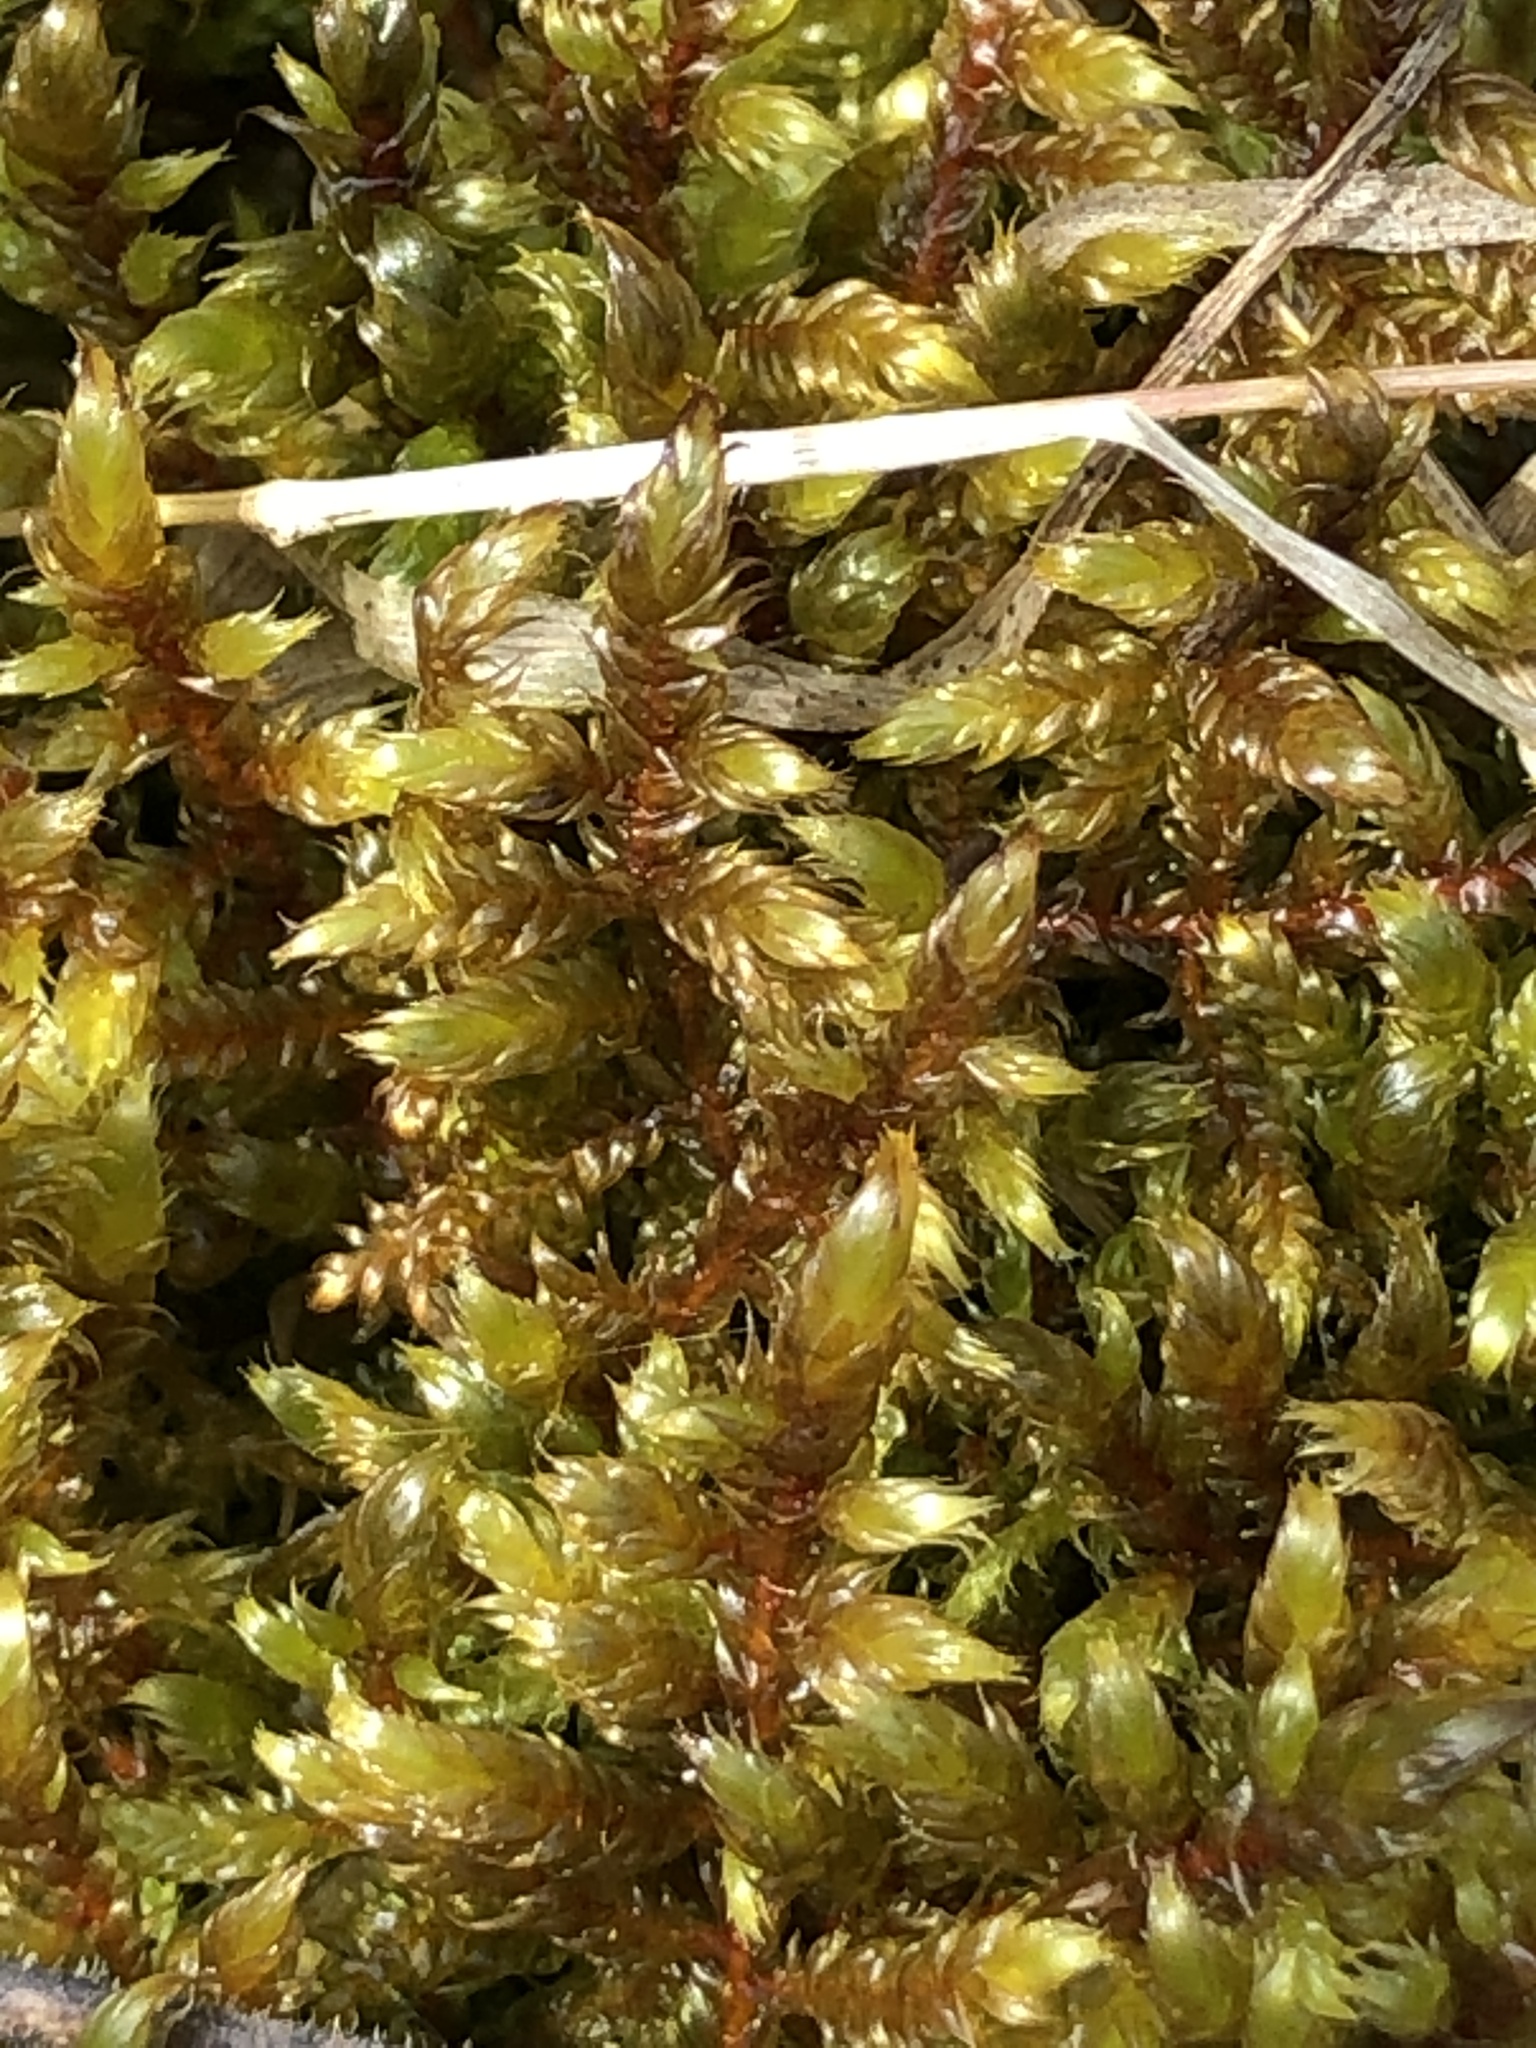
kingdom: Plantae
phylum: Bryophyta
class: Bryopsida
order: Hypnales
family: Pylaisiaceae
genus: Calliergonella
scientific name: Calliergonella lindbergii
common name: Lindberg's plait-moss
